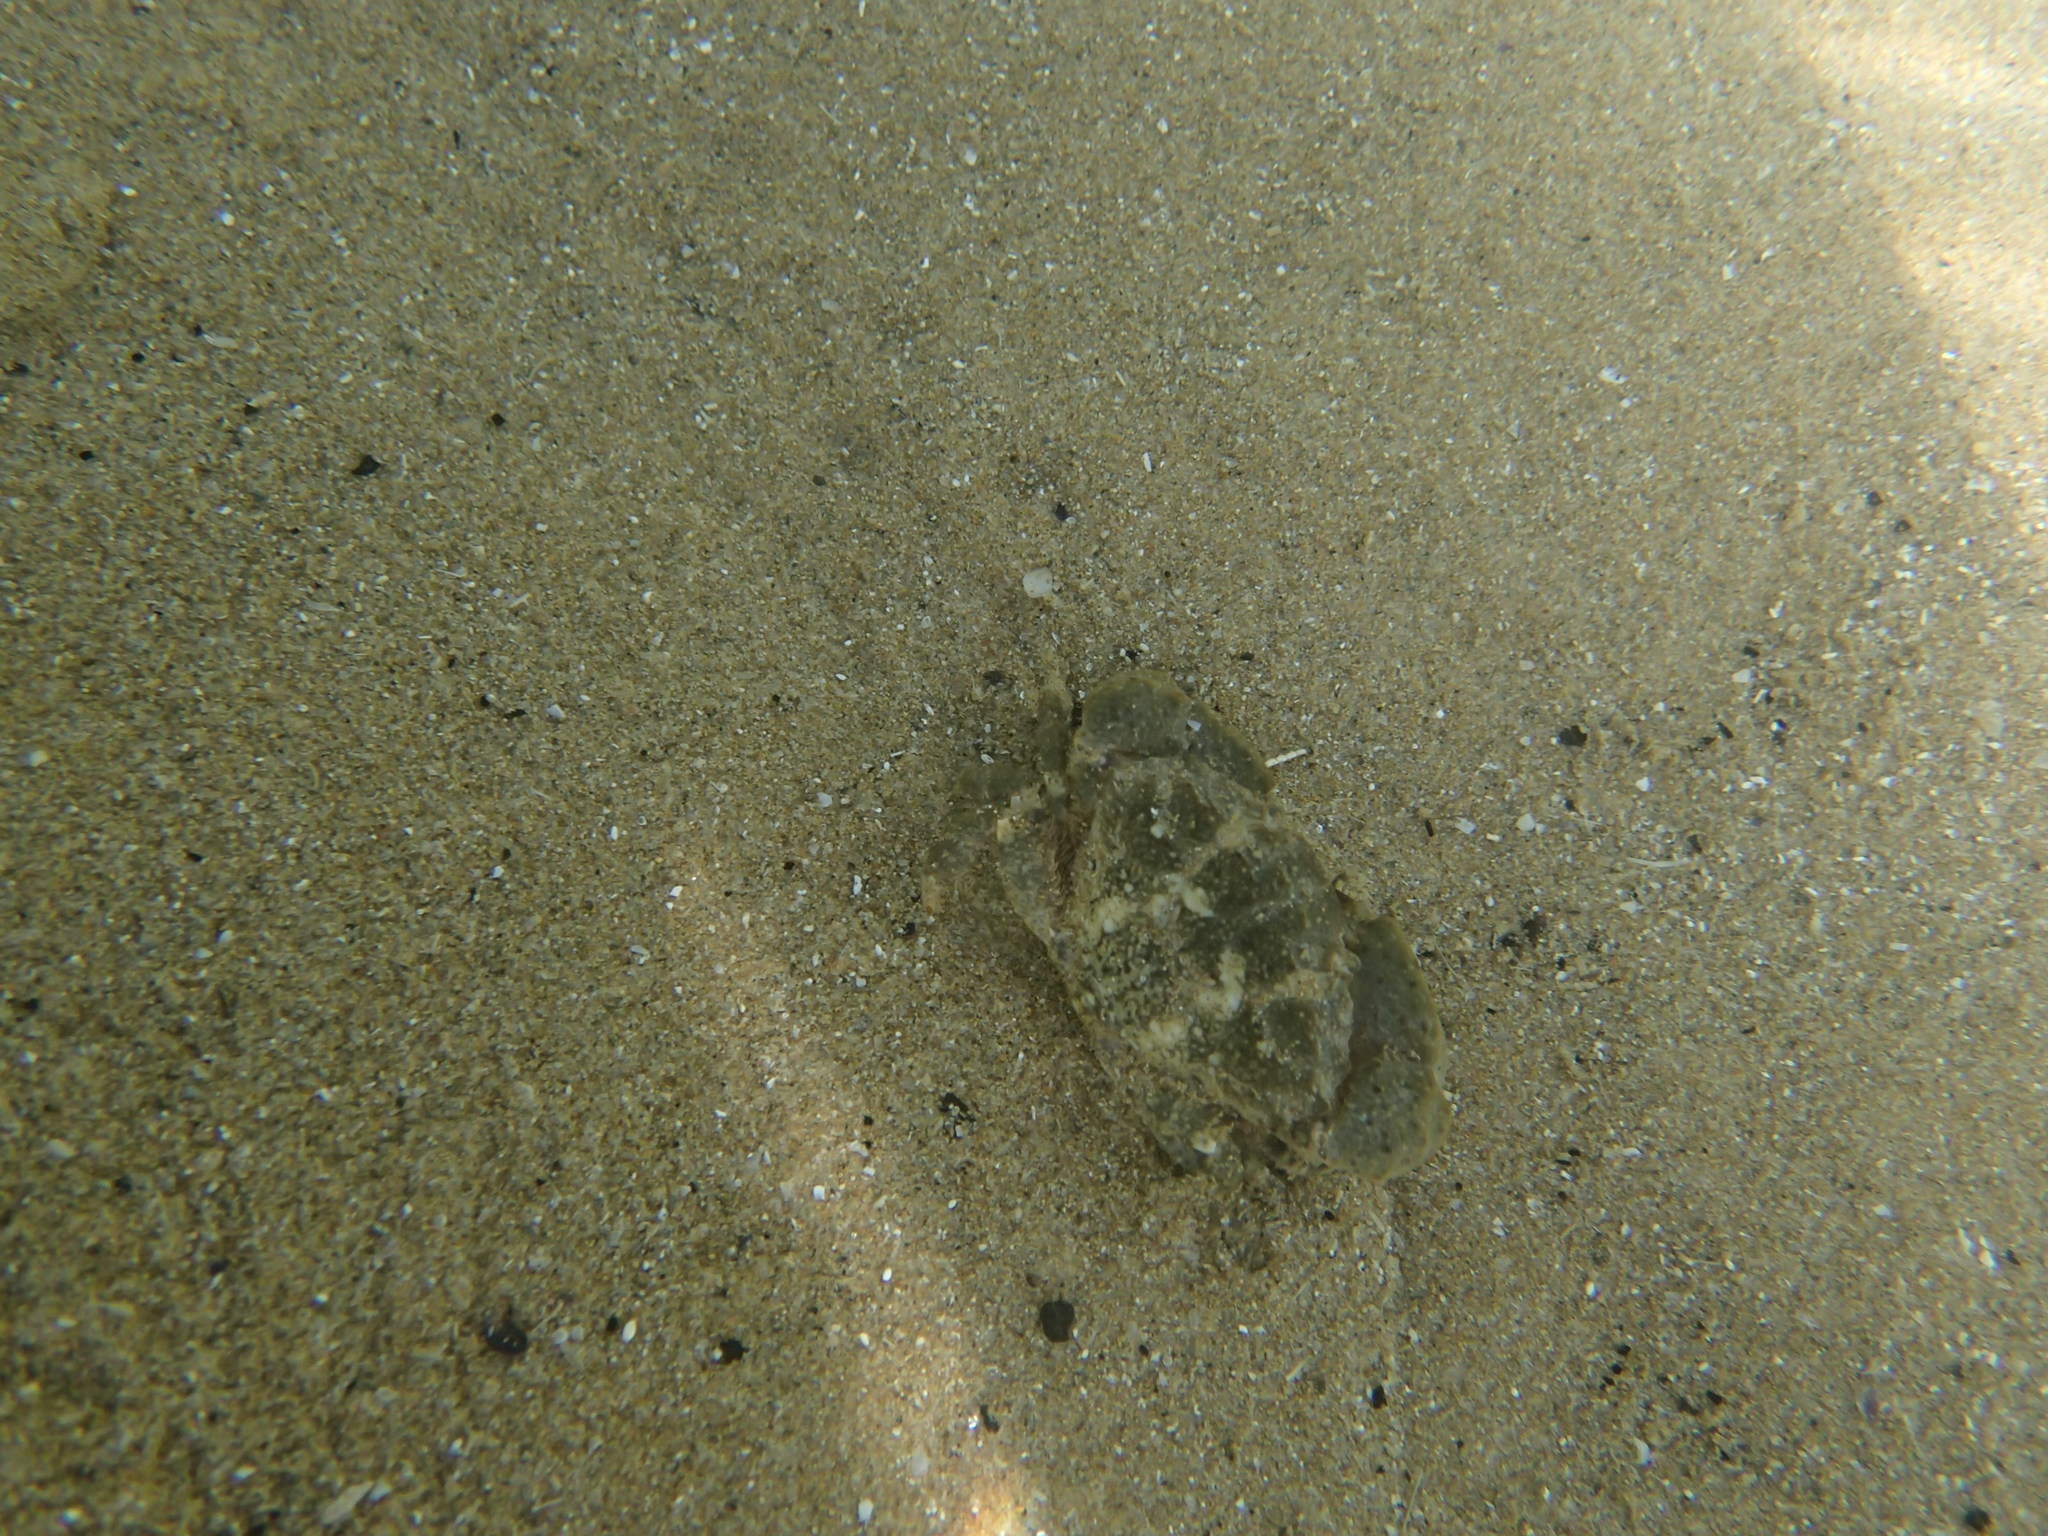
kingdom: Animalia
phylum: Arthropoda
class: Malacostraca
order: Decapoda
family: Xanthidae
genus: Xantho
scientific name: Xantho poressa
